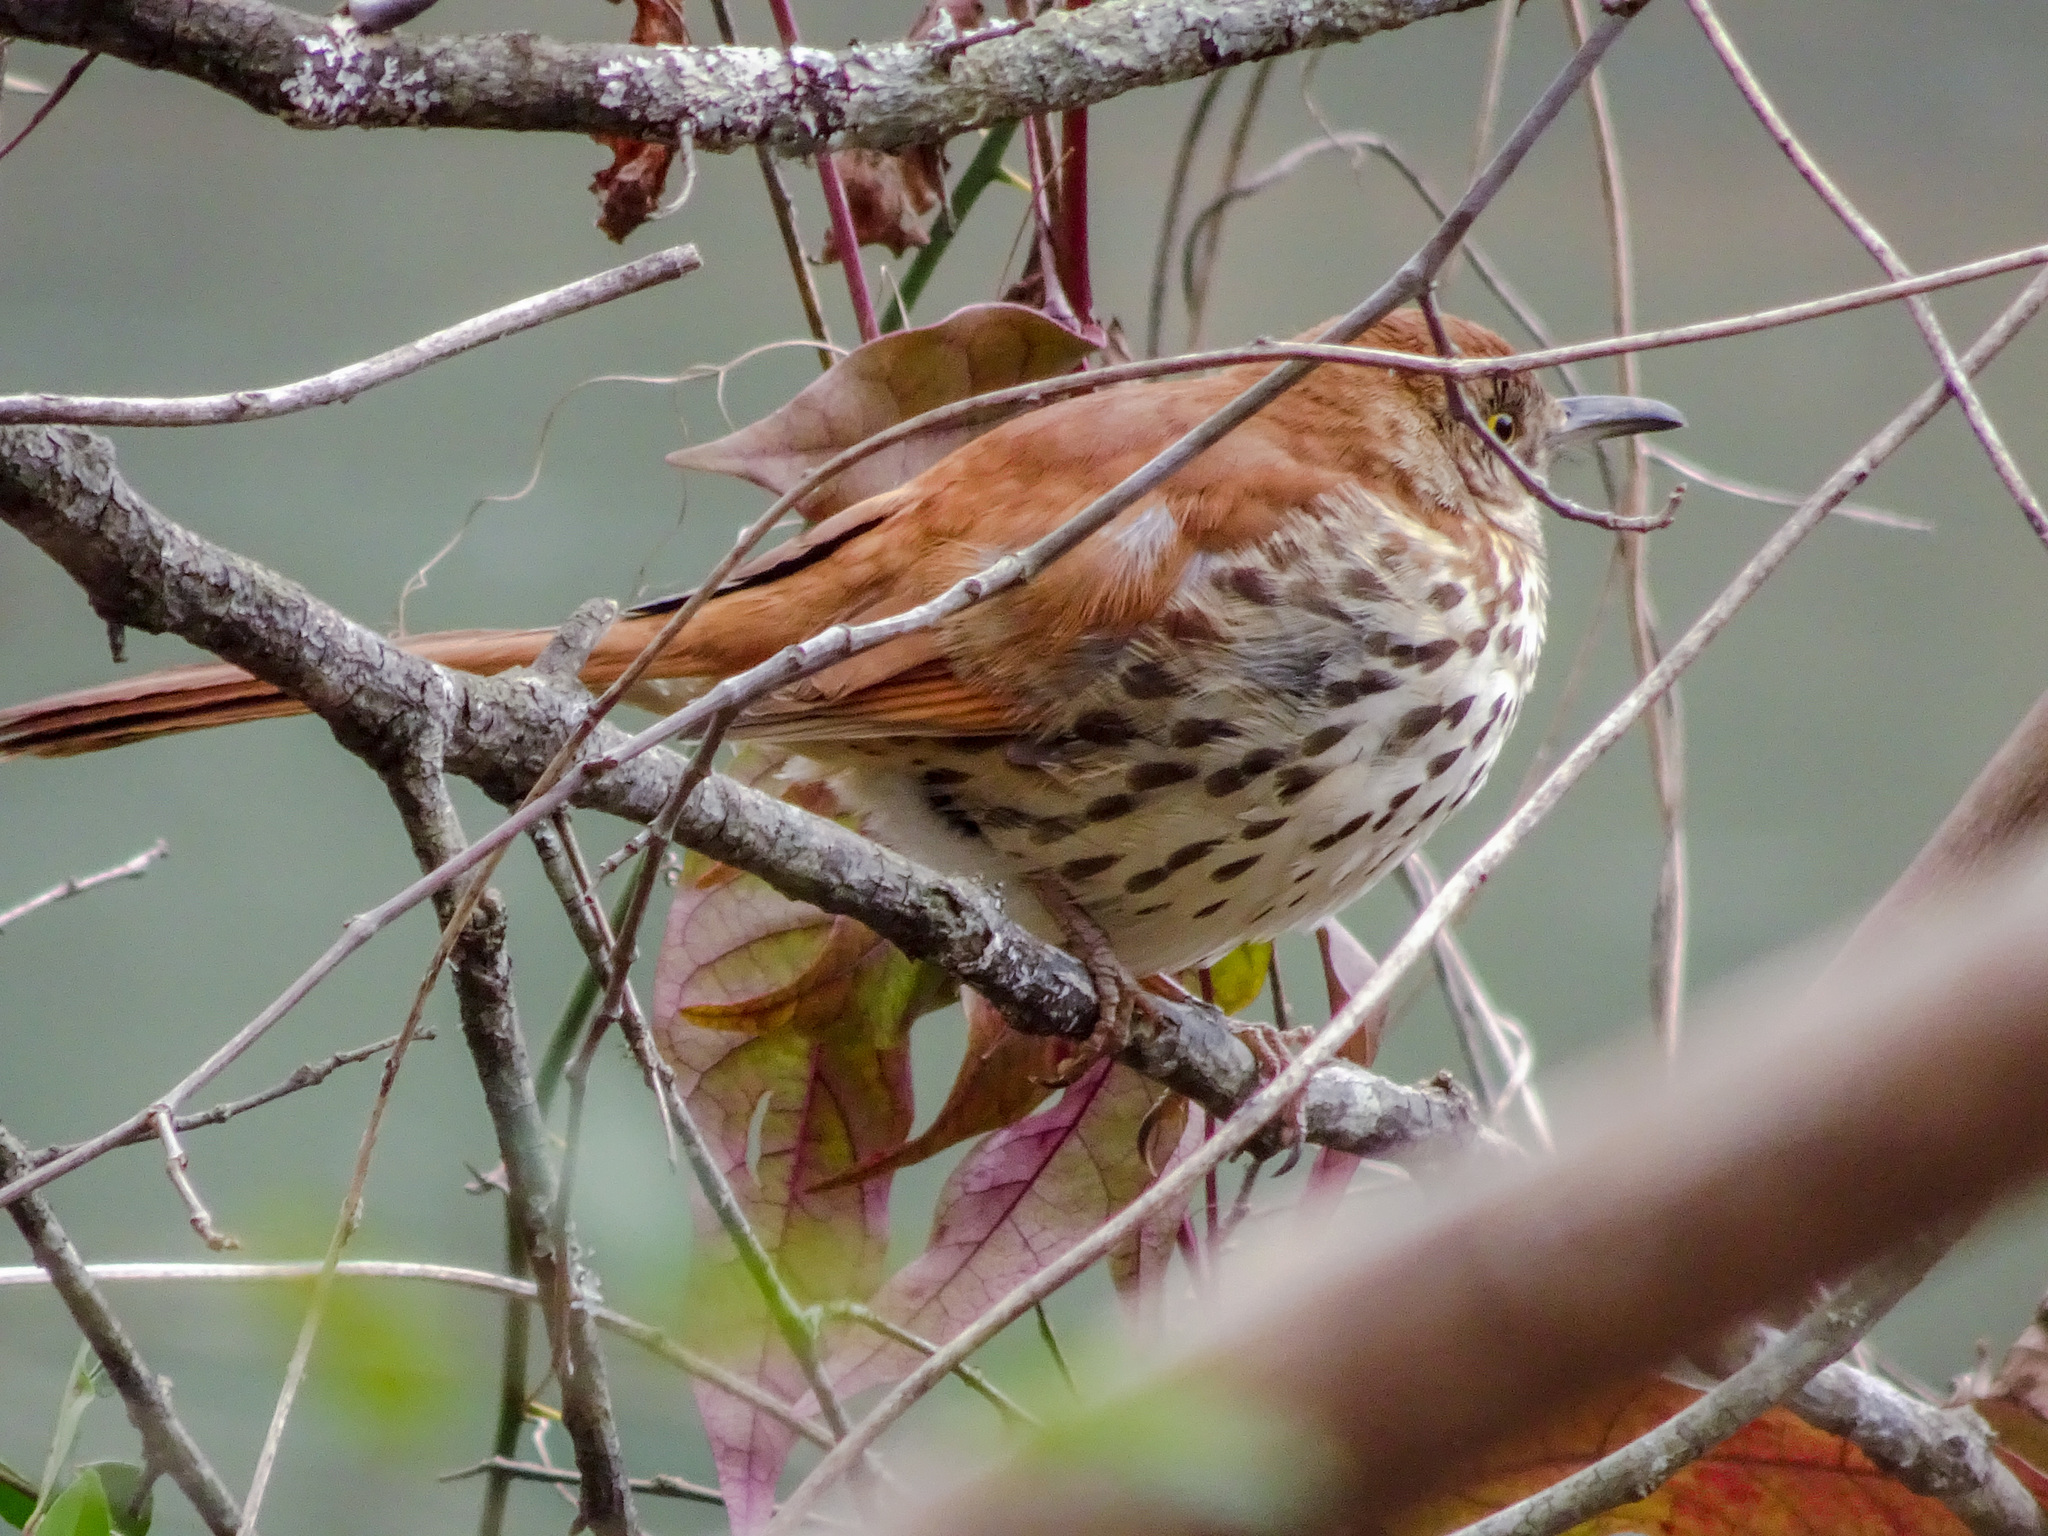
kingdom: Animalia
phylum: Chordata
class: Aves
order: Passeriformes
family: Mimidae
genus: Toxostoma
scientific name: Toxostoma rufum
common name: Brown thrasher
